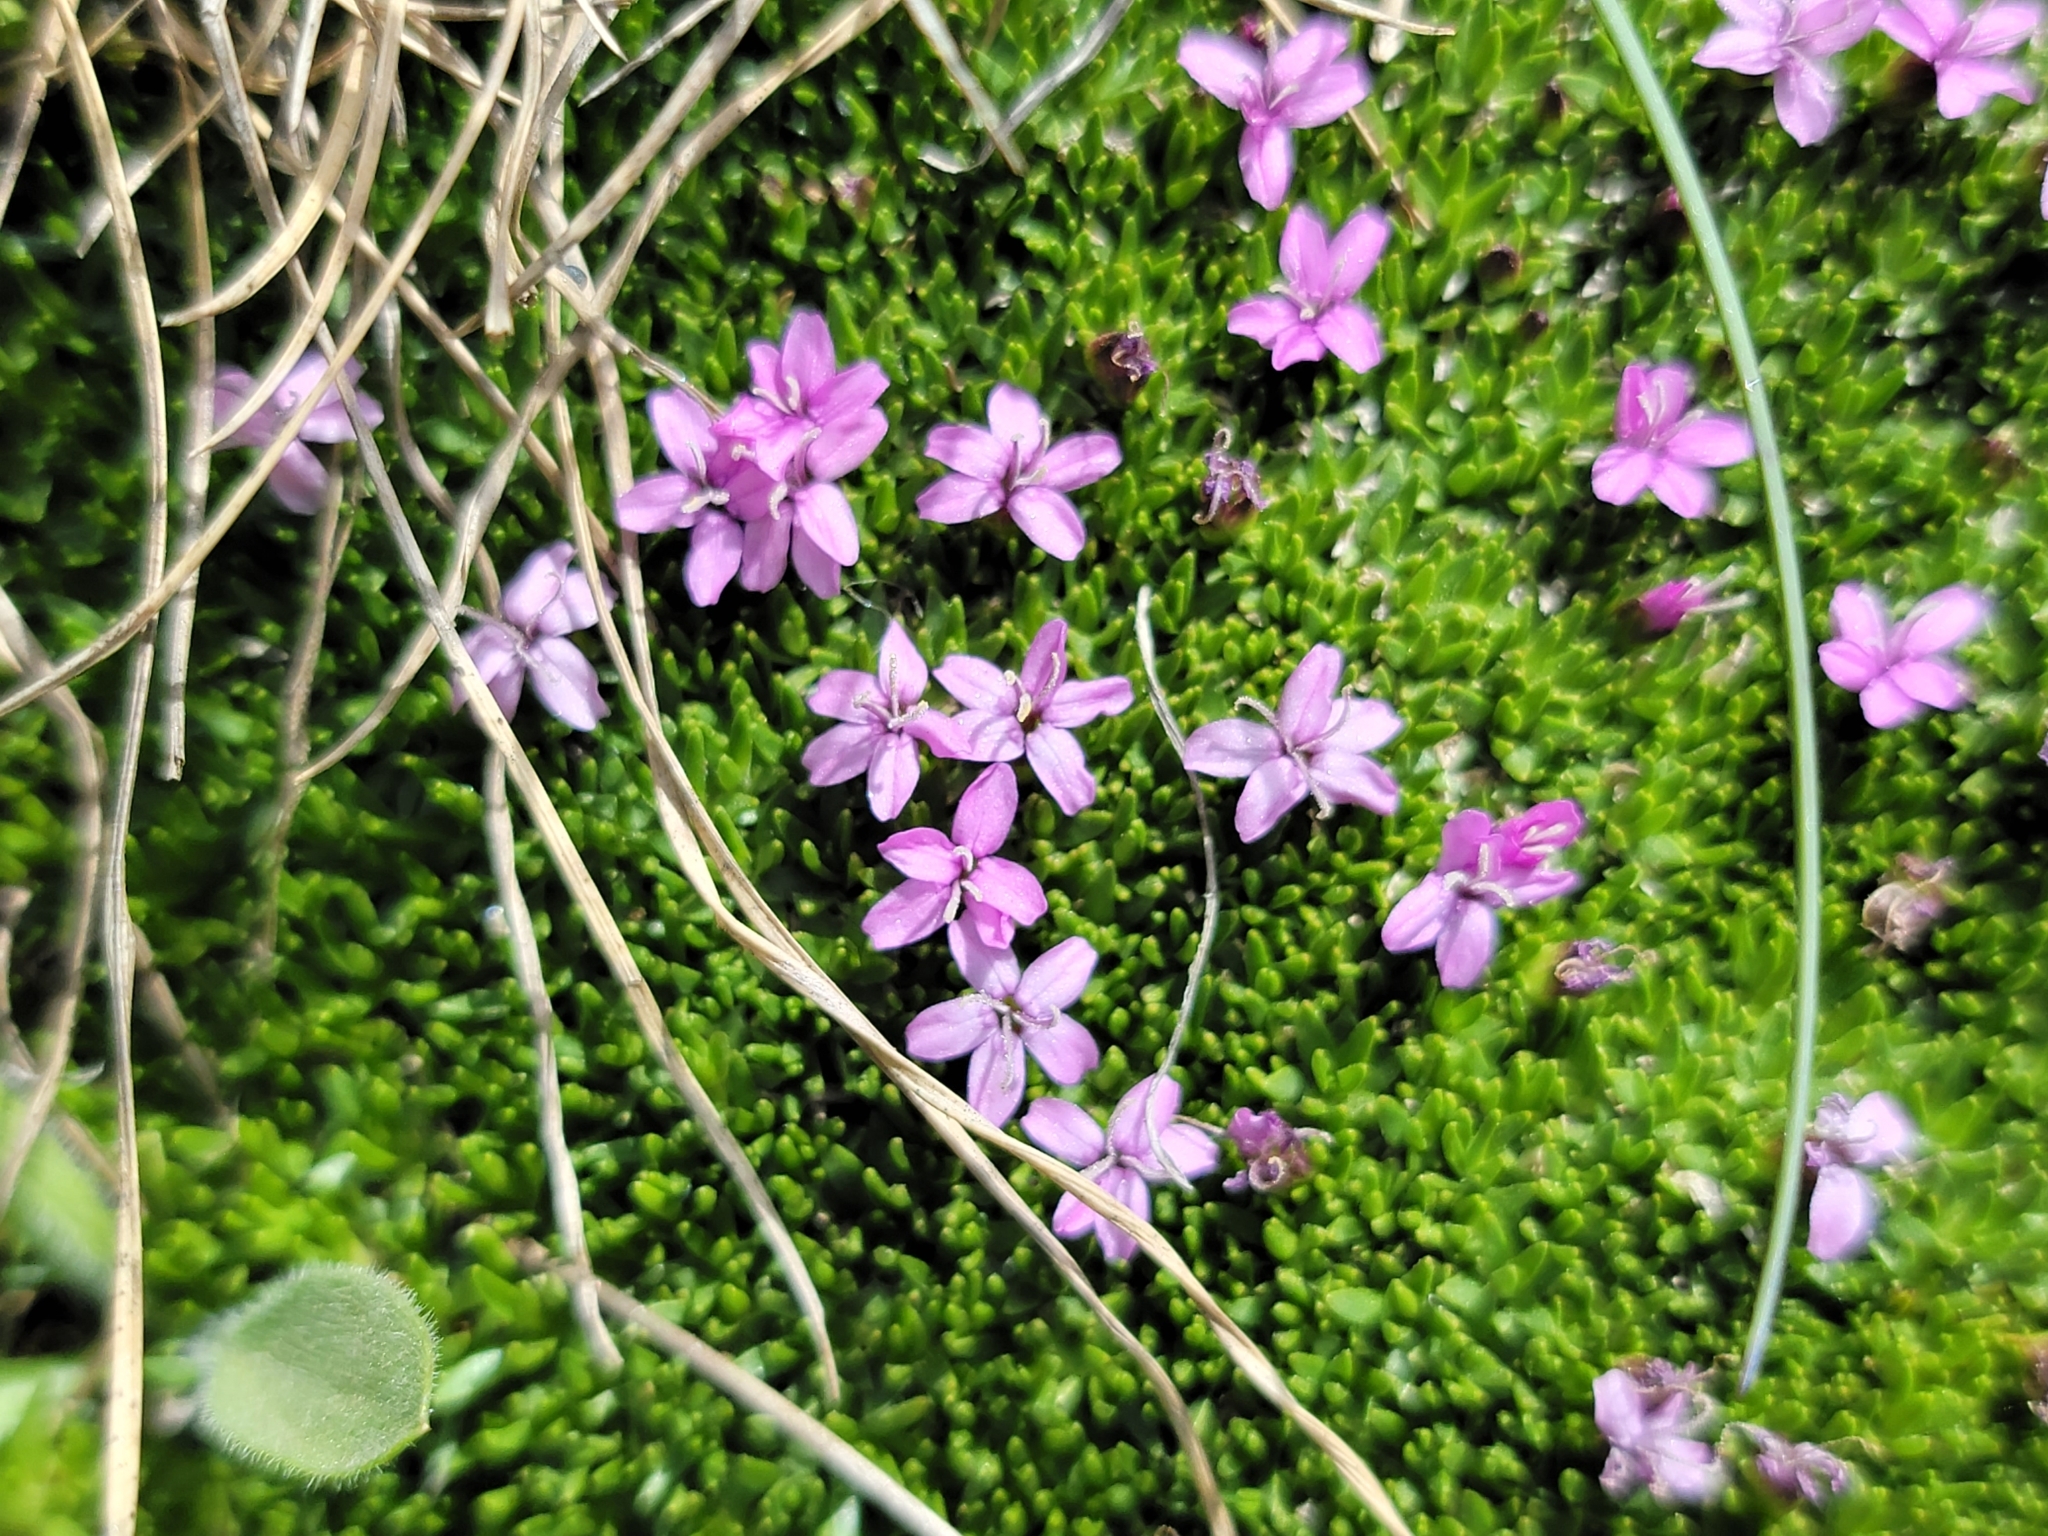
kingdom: Plantae
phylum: Tracheophyta
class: Magnoliopsida
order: Caryophyllales
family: Caryophyllaceae
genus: Silene
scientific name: Silene acaulis
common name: Moss campion
